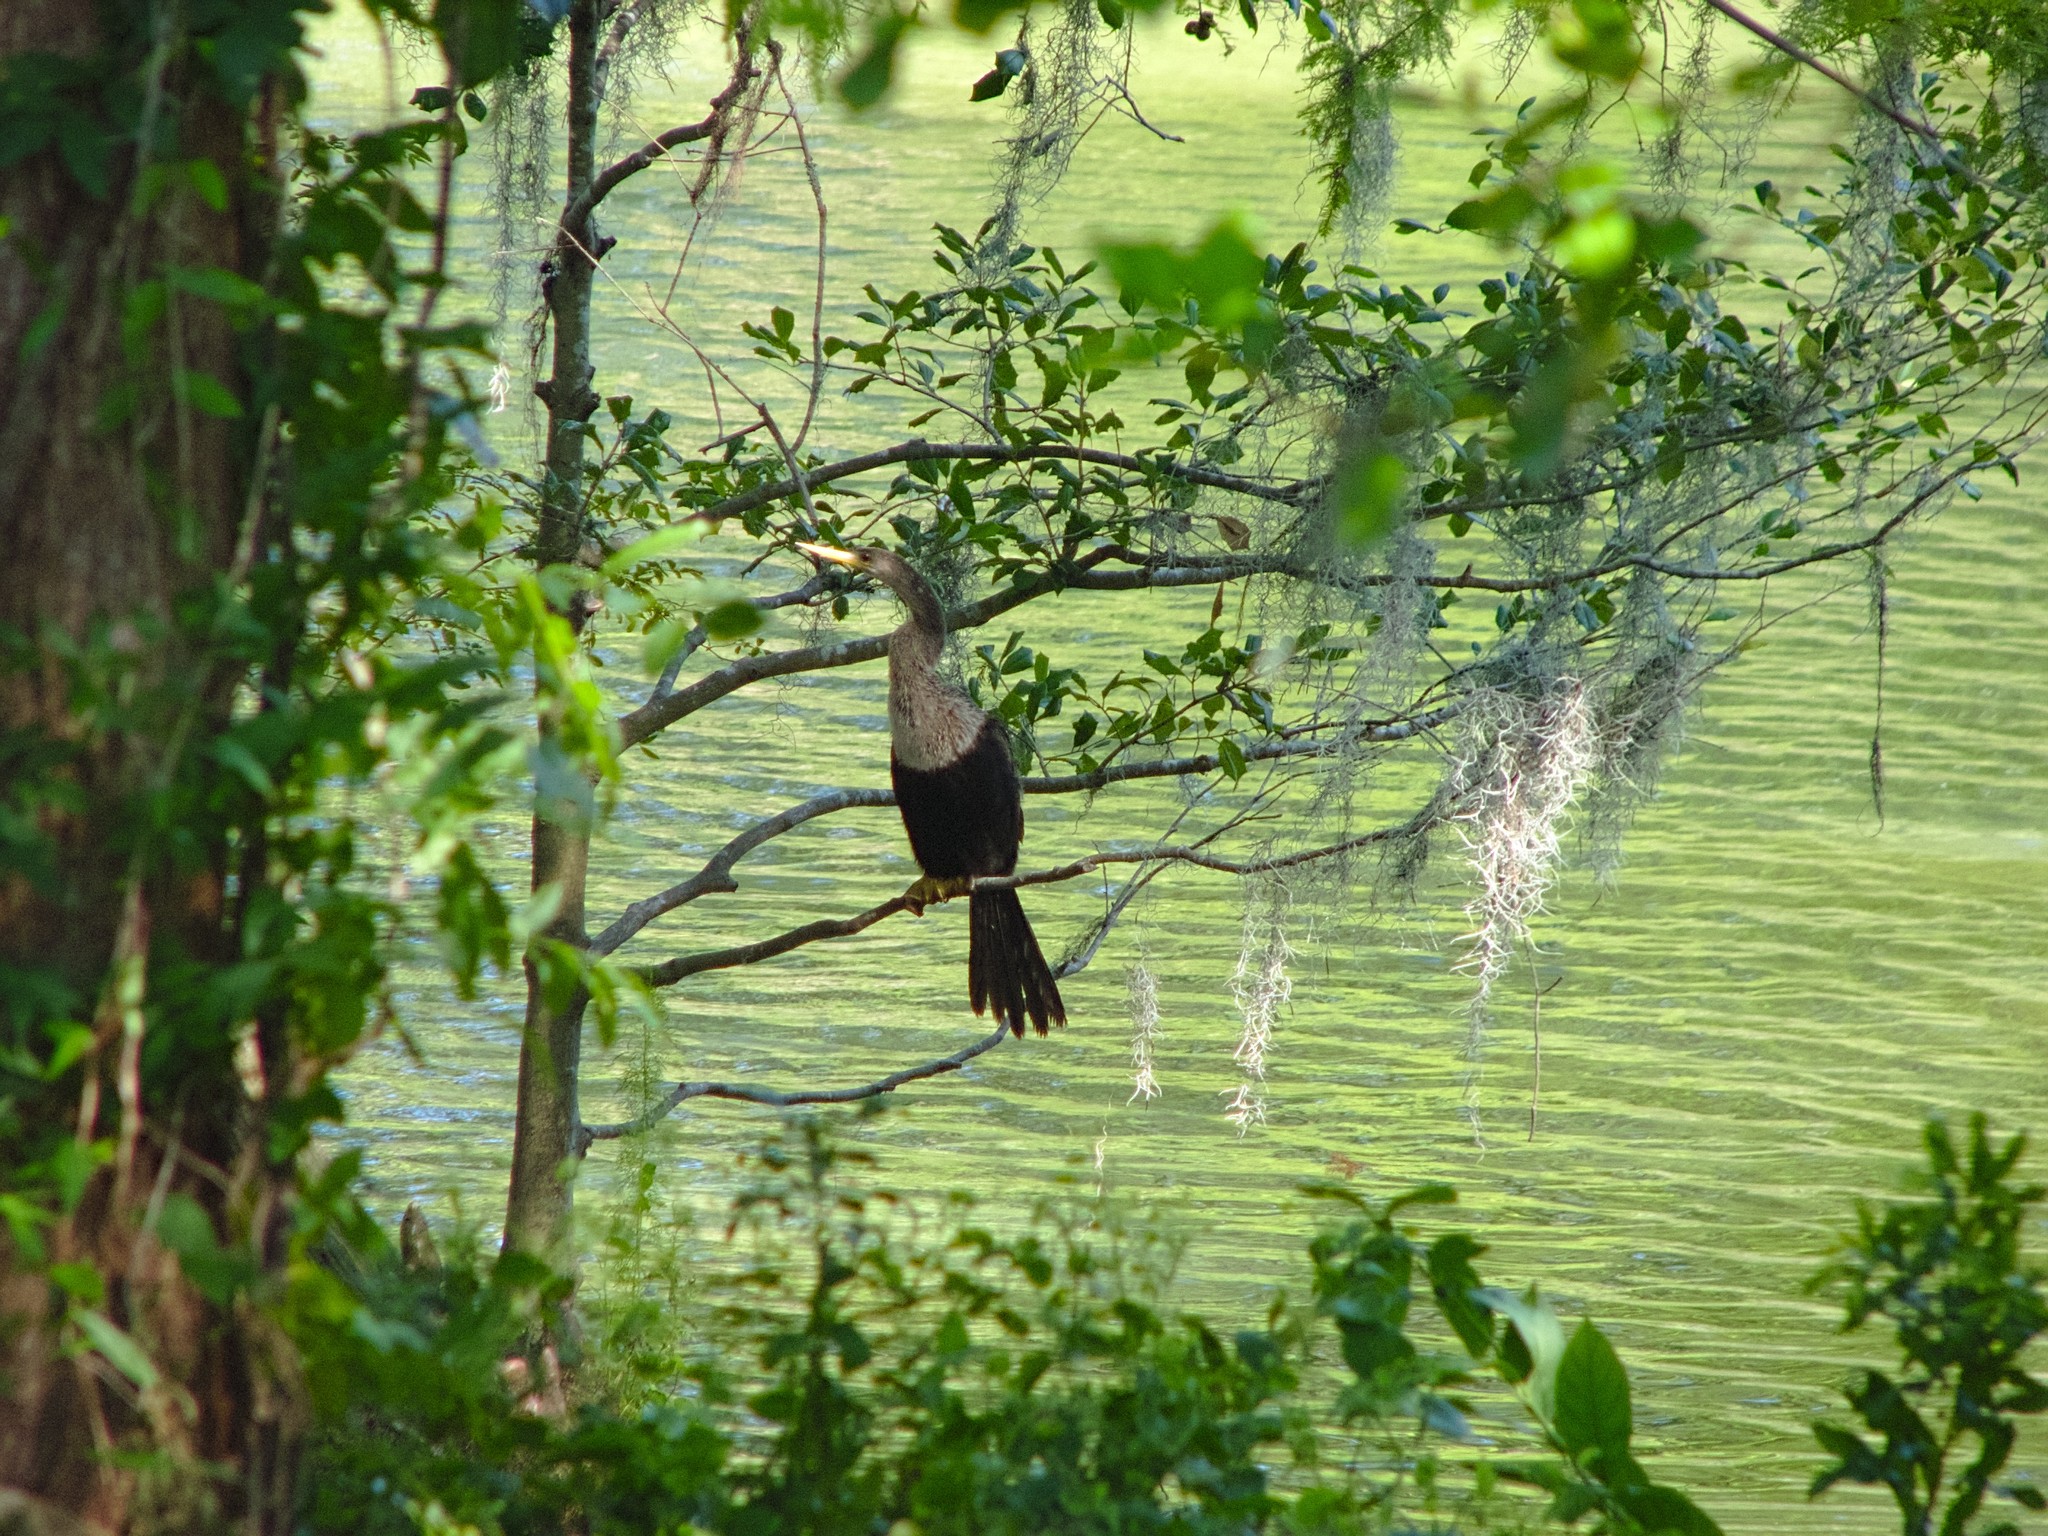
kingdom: Animalia
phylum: Chordata
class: Aves
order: Suliformes
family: Anhingidae
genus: Anhinga
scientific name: Anhinga anhinga
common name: Anhinga
